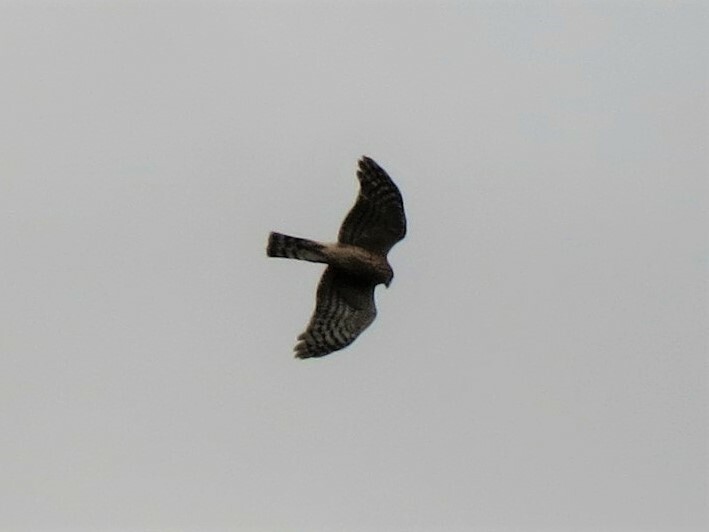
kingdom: Animalia
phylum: Chordata
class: Aves
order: Accipitriformes
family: Accipitridae
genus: Accipiter
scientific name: Accipiter rufiventris
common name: Rufous-breasted sparrowhawk
